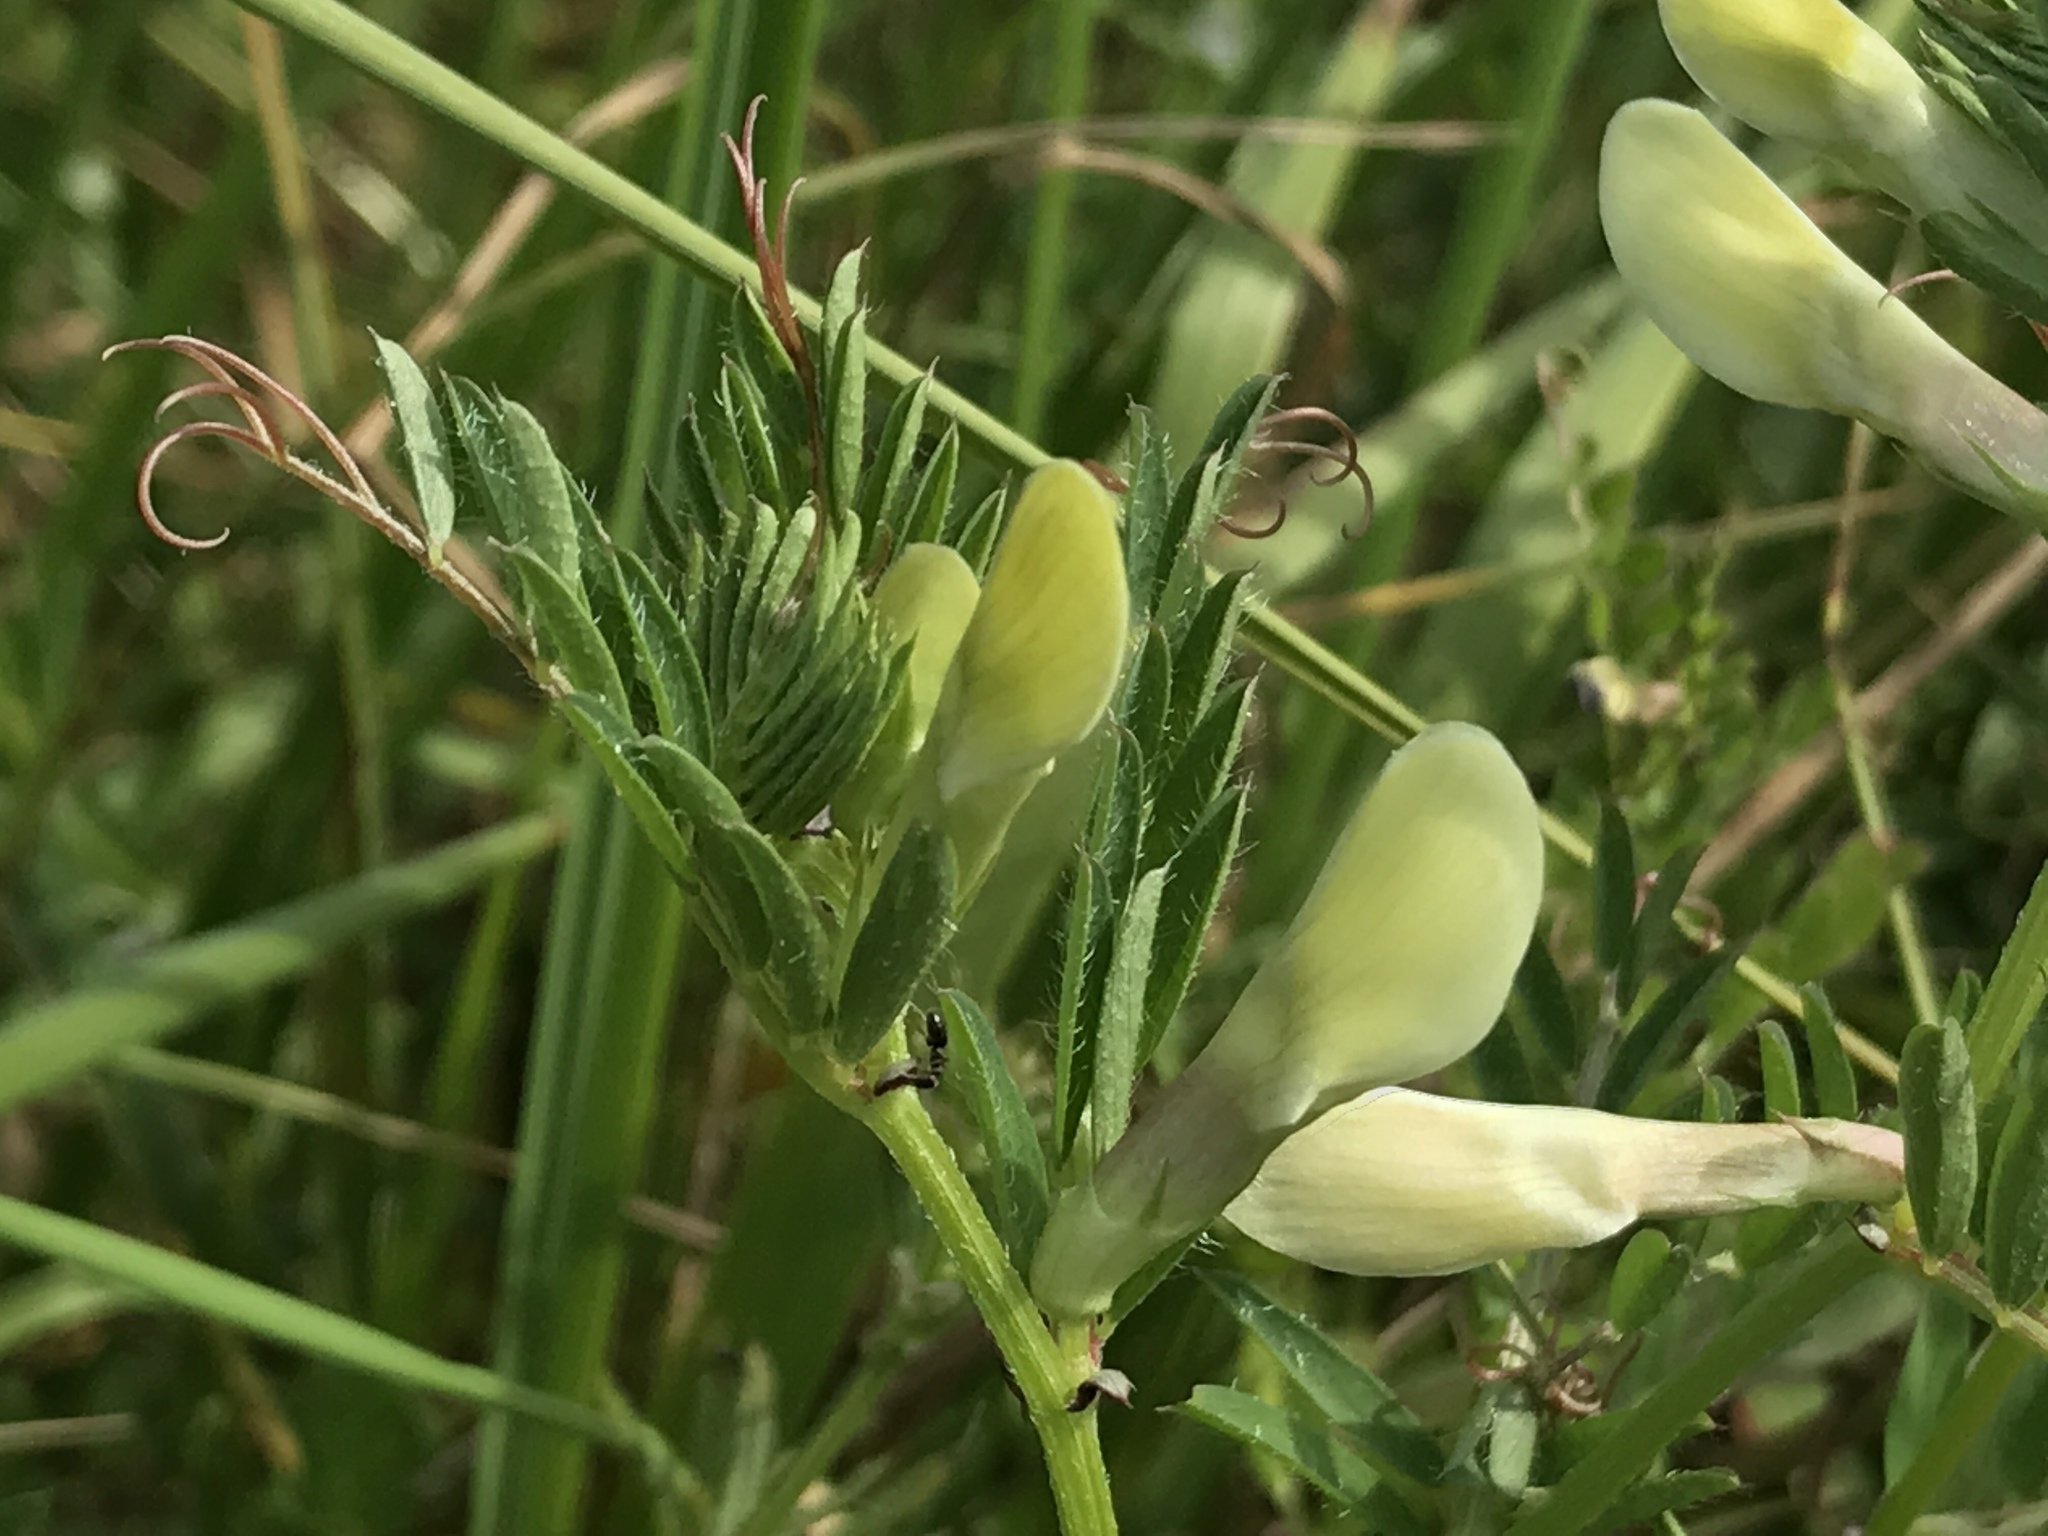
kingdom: Plantae
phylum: Tracheophyta
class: Magnoliopsida
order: Fabales
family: Fabaceae
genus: Vicia
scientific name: Vicia lutea
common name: Smooth yellow vetch
